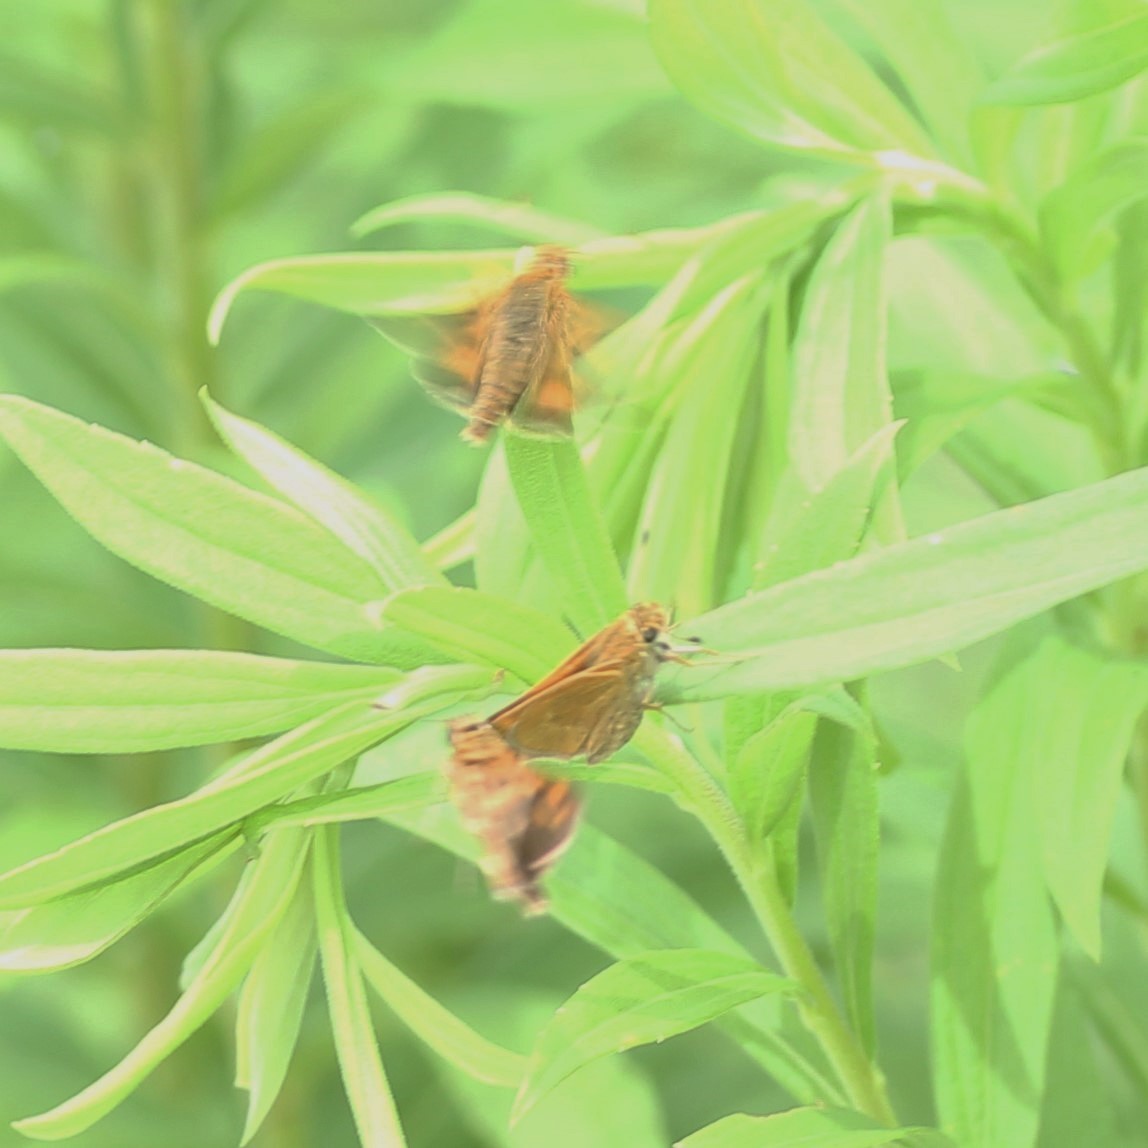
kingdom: Animalia
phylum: Arthropoda
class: Insecta
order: Lepidoptera
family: Hesperiidae
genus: Problema
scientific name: Problema byssus
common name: Byssus skipper
